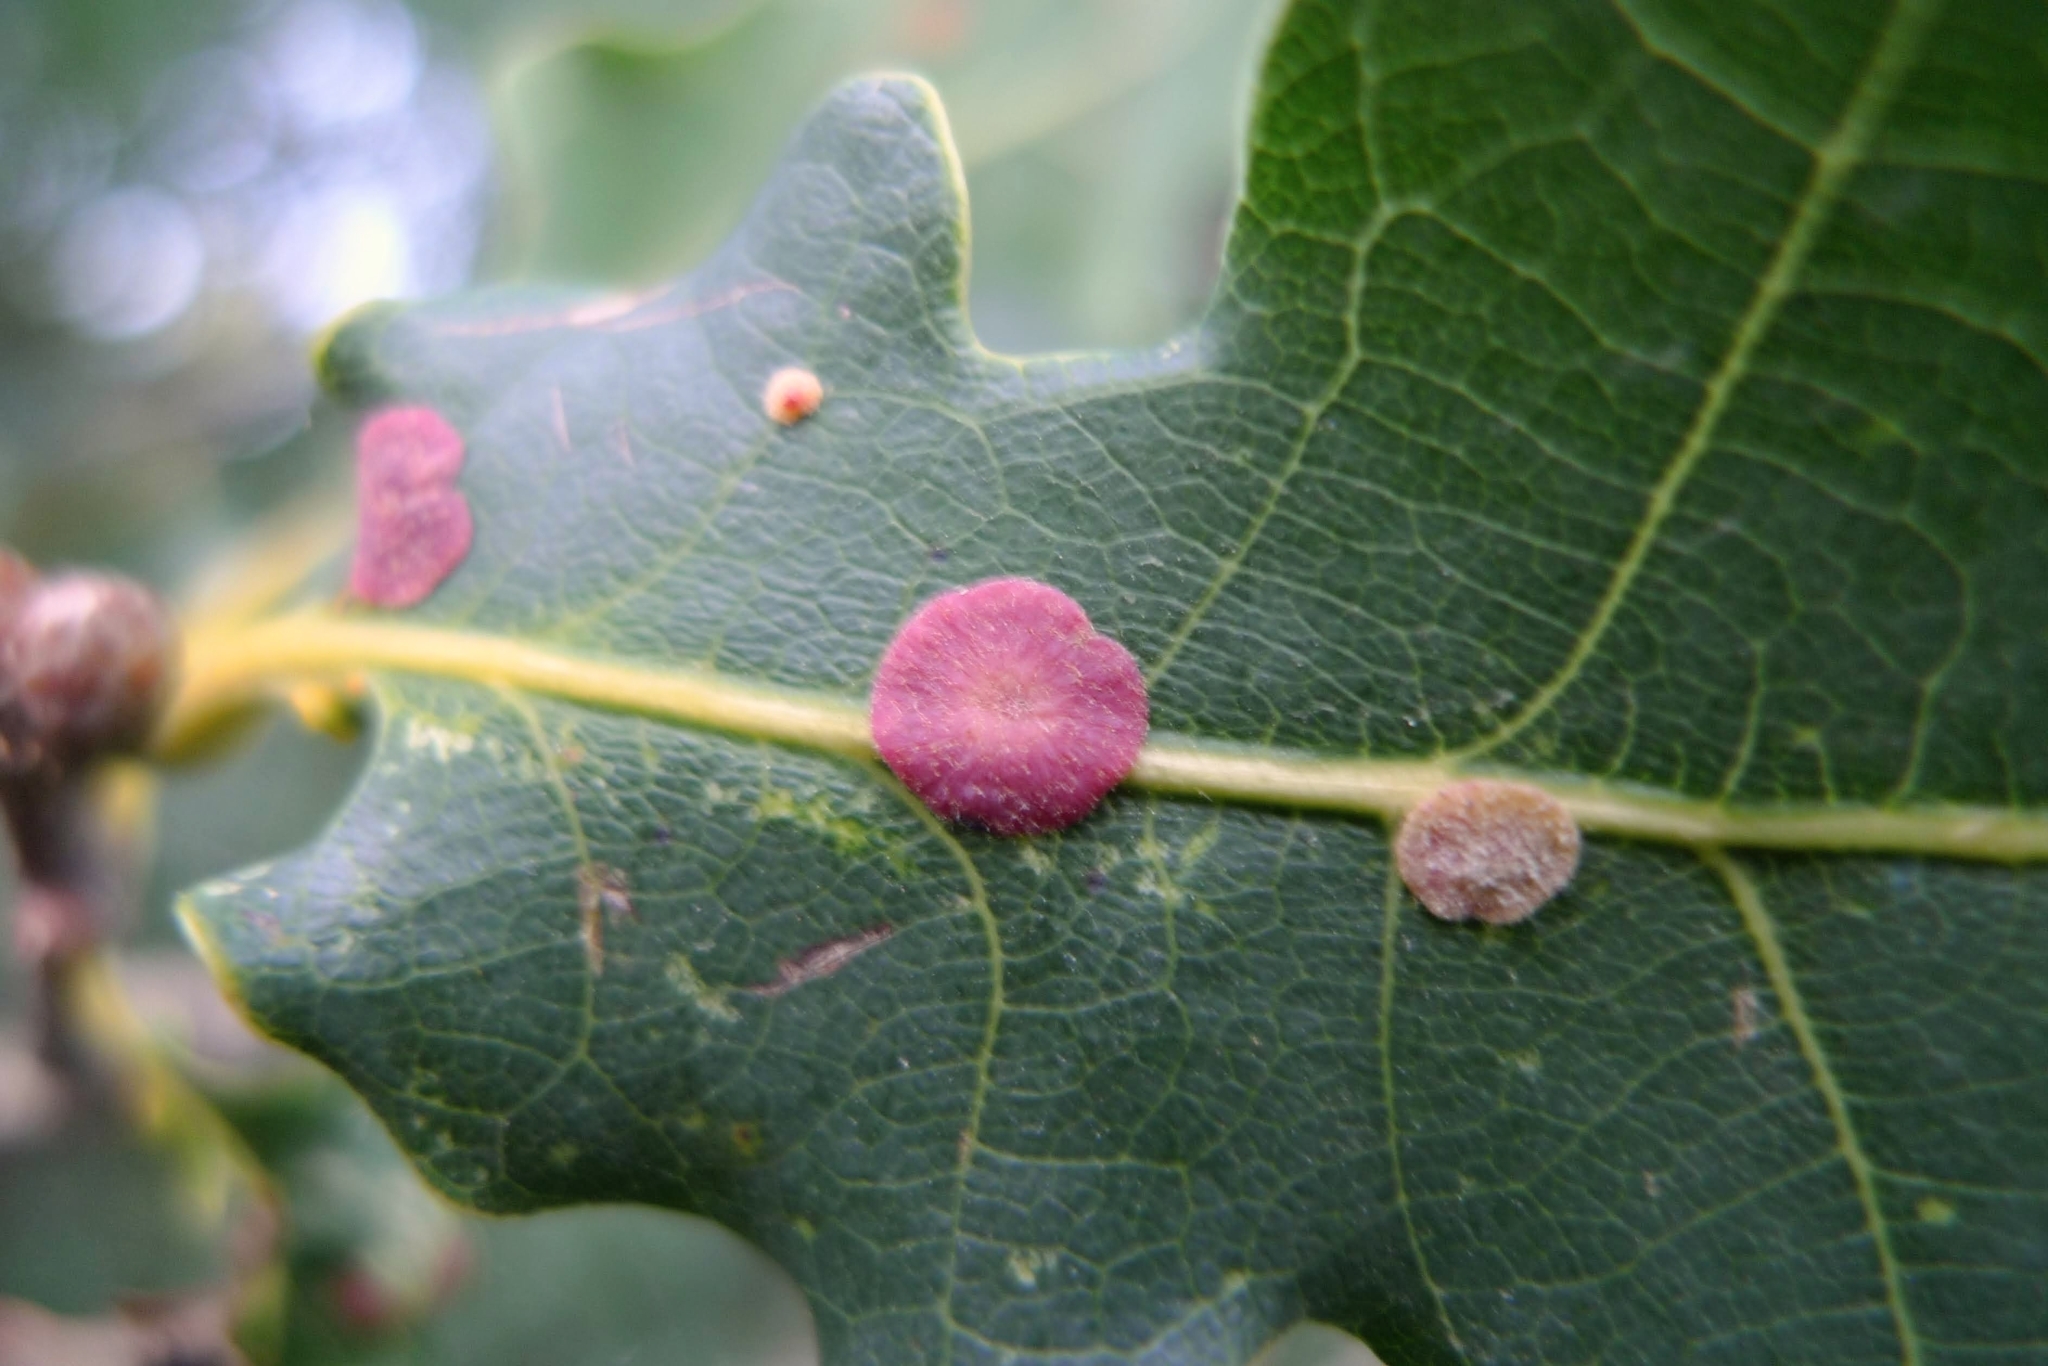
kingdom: Animalia
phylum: Arthropoda
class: Insecta
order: Hymenoptera
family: Cynipidae
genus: Neuroterus
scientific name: Neuroterus quercusbaccarum
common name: Common spangle gall
